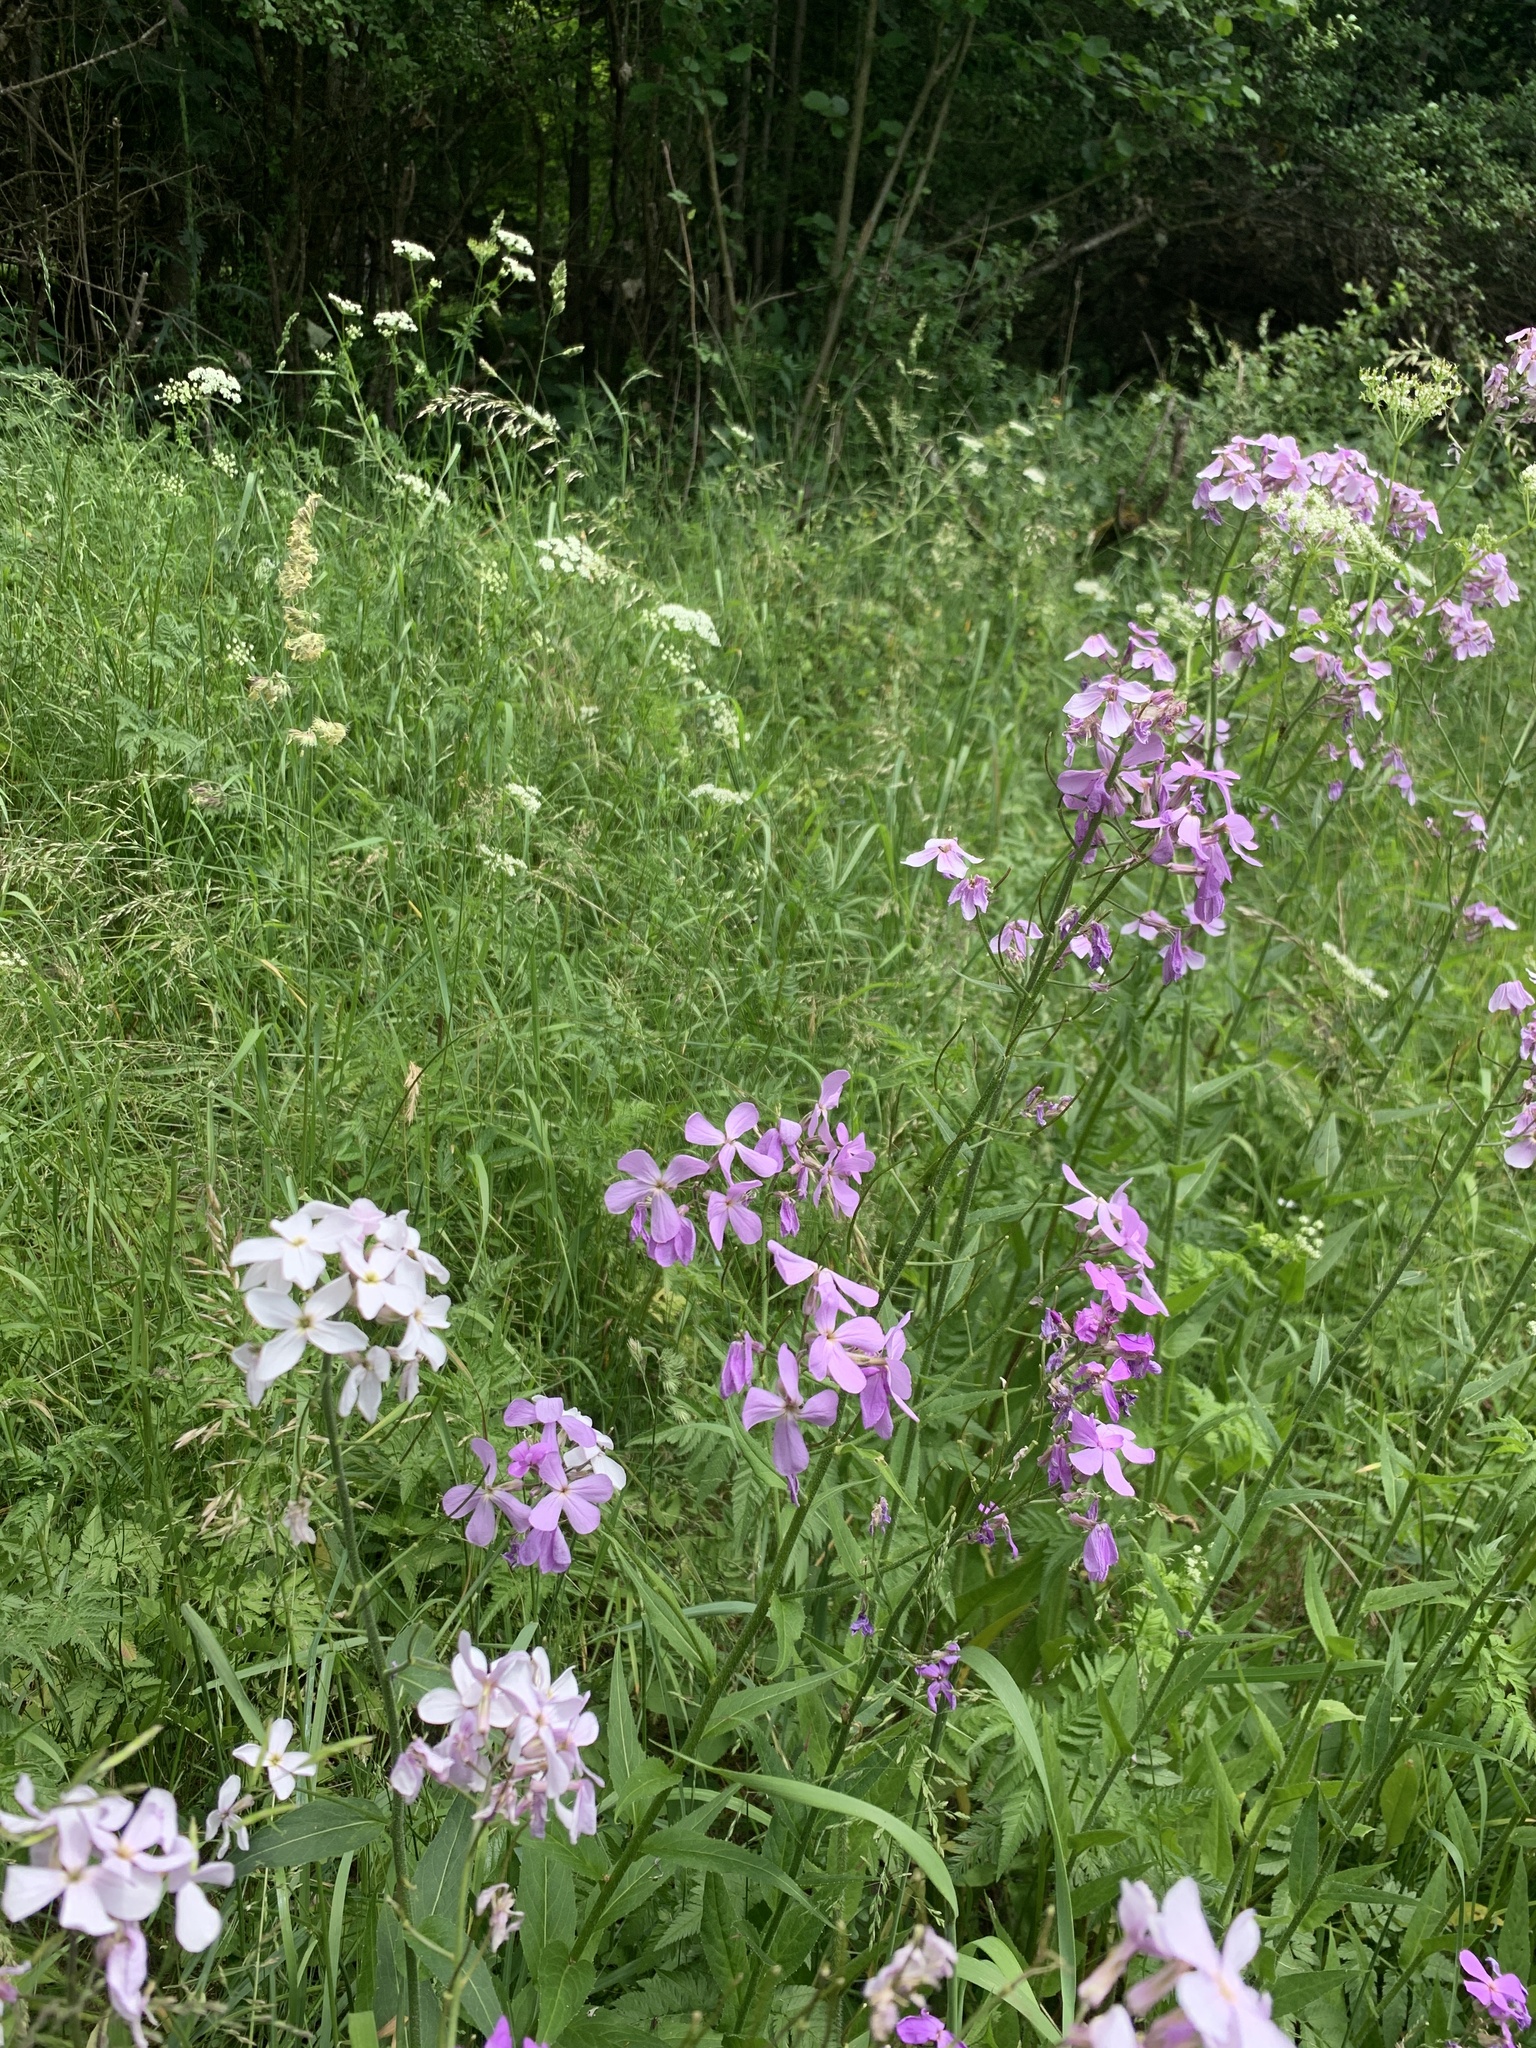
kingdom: Plantae
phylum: Tracheophyta
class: Magnoliopsida
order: Brassicales
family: Brassicaceae
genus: Hesperis
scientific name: Hesperis matronalis
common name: Dame's-violet
